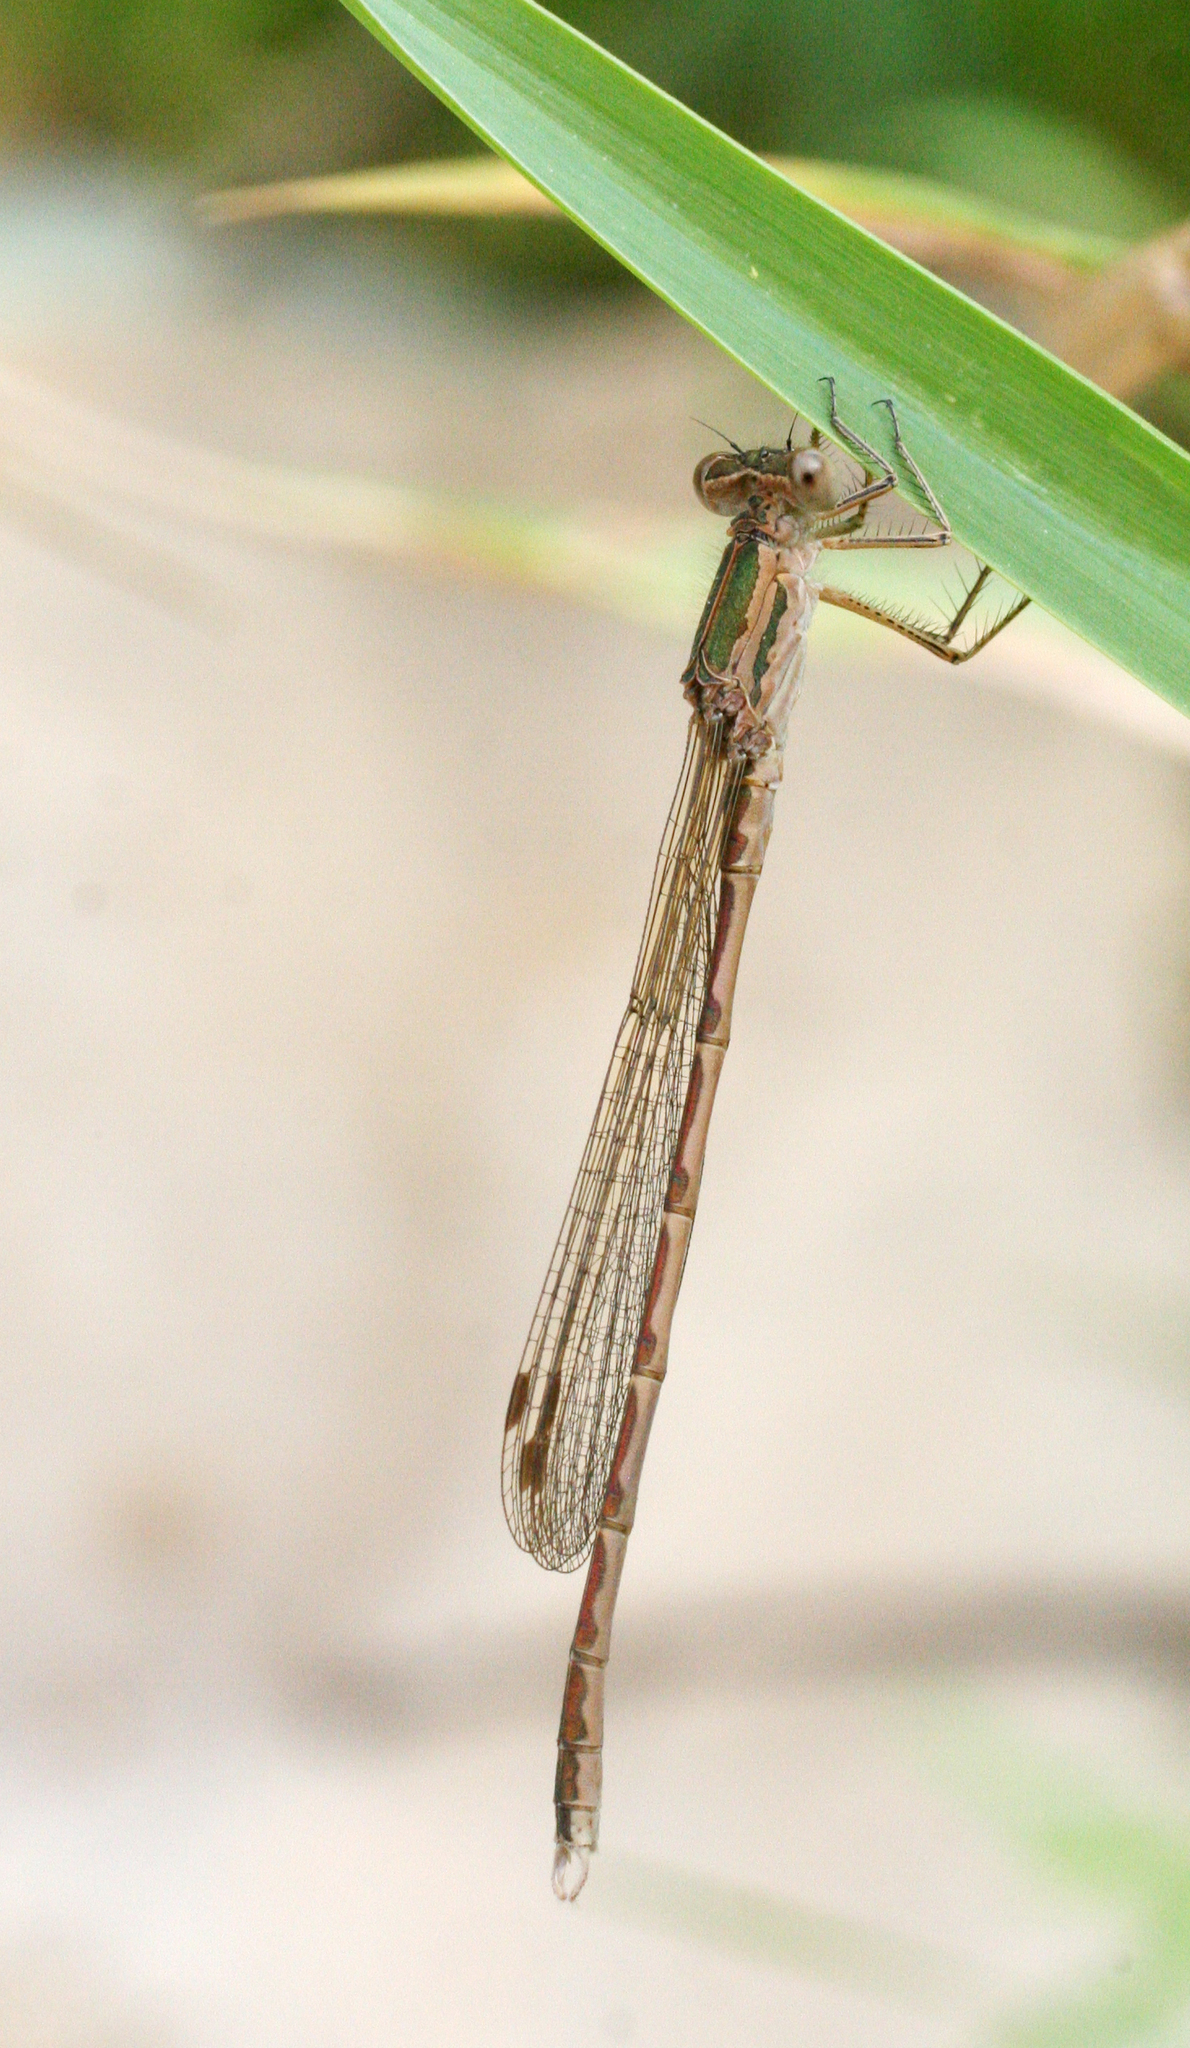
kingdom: Animalia
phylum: Arthropoda
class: Insecta
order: Odonata
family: Lestidae
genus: Sympecma
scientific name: Sympecma paedisca
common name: Siberian winter damsel
